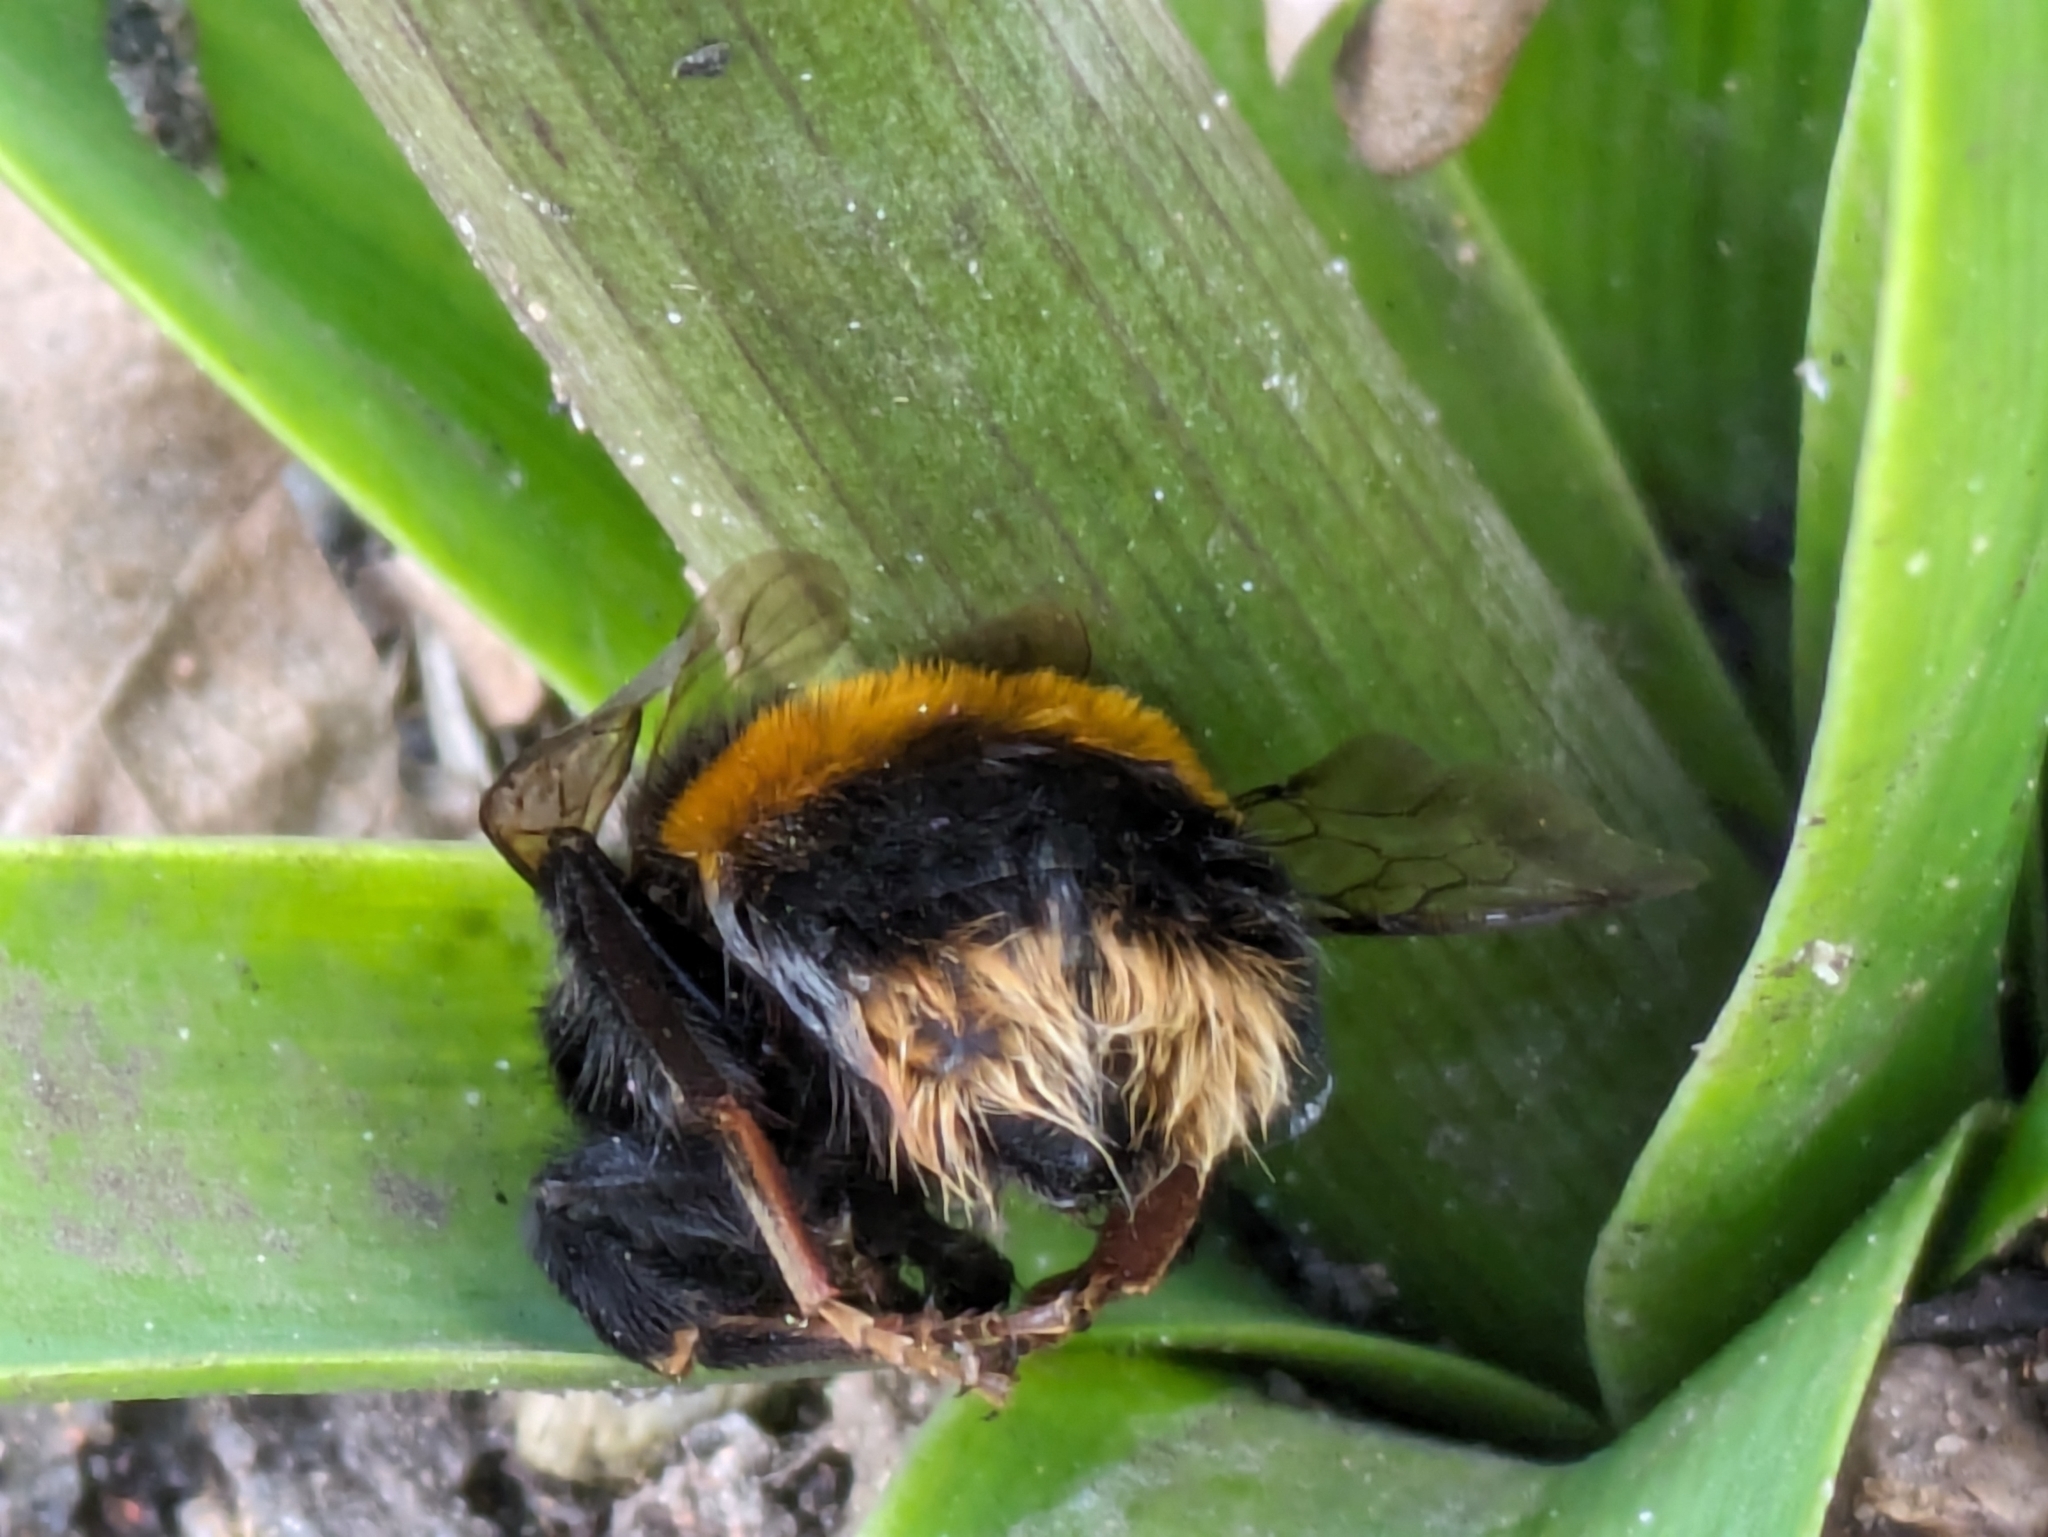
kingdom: Animalia
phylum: Arthropoda
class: Insecta
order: Hymenoptera
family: Apidae
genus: Bombus
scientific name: Bombus terrestris
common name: Buff-tailed bumblebee
